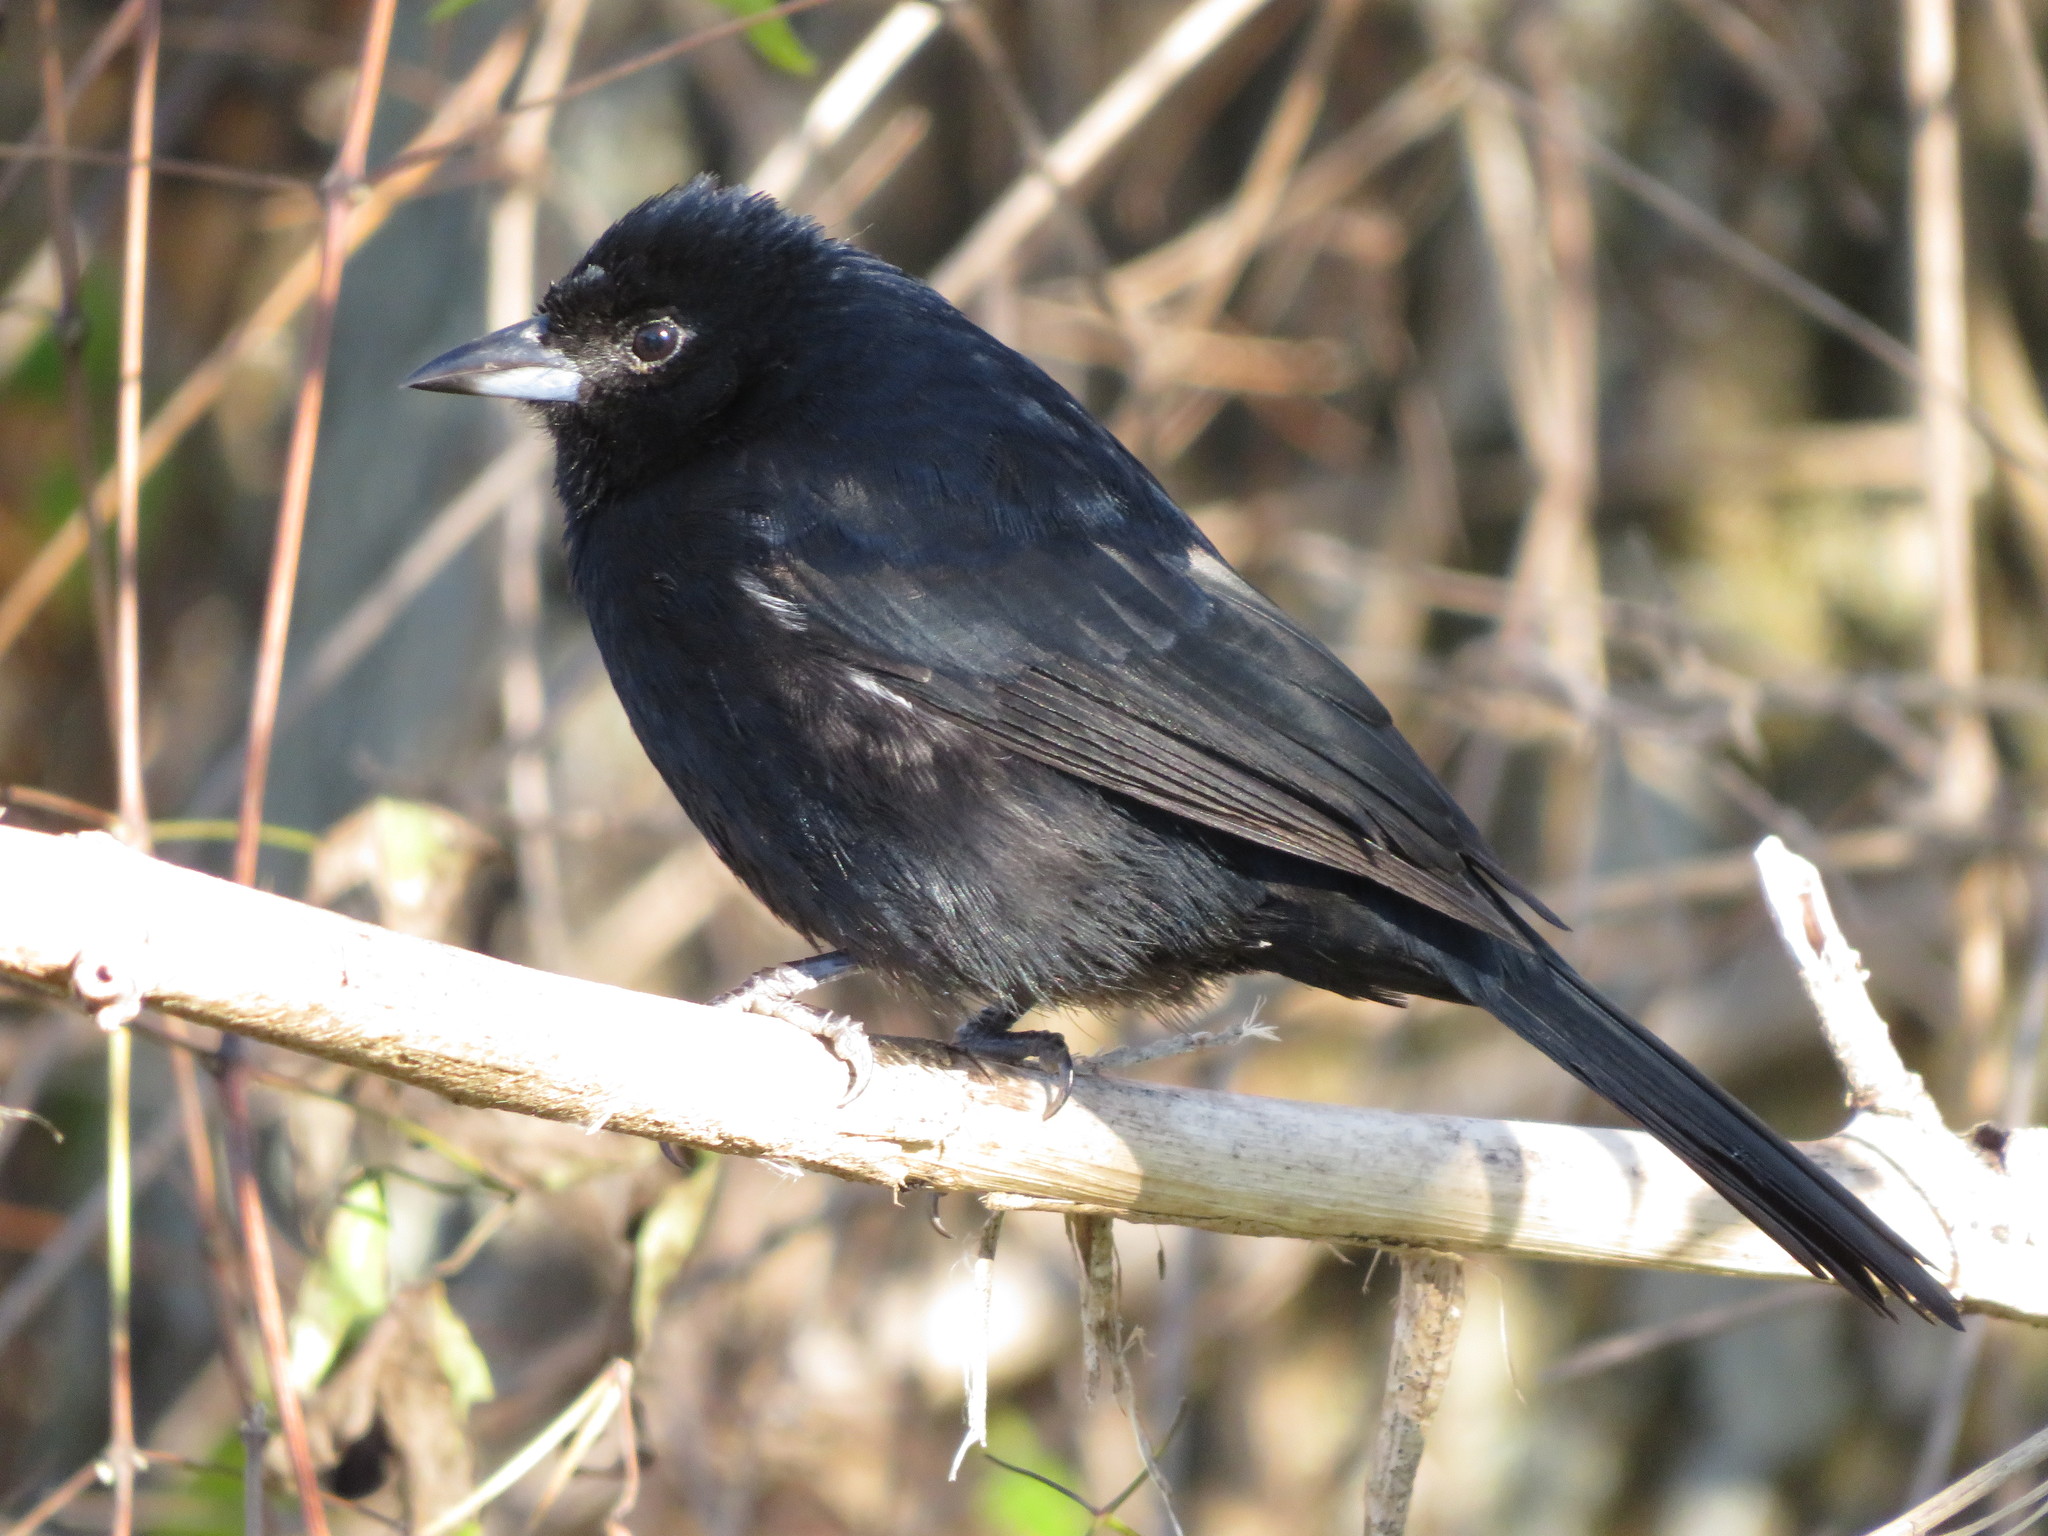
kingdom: Animalia
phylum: Chordata
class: Aves
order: Passeriformes
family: Thraupidae
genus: Tachyphonus
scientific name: Tachyphonus rufus
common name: White-lined tanager
